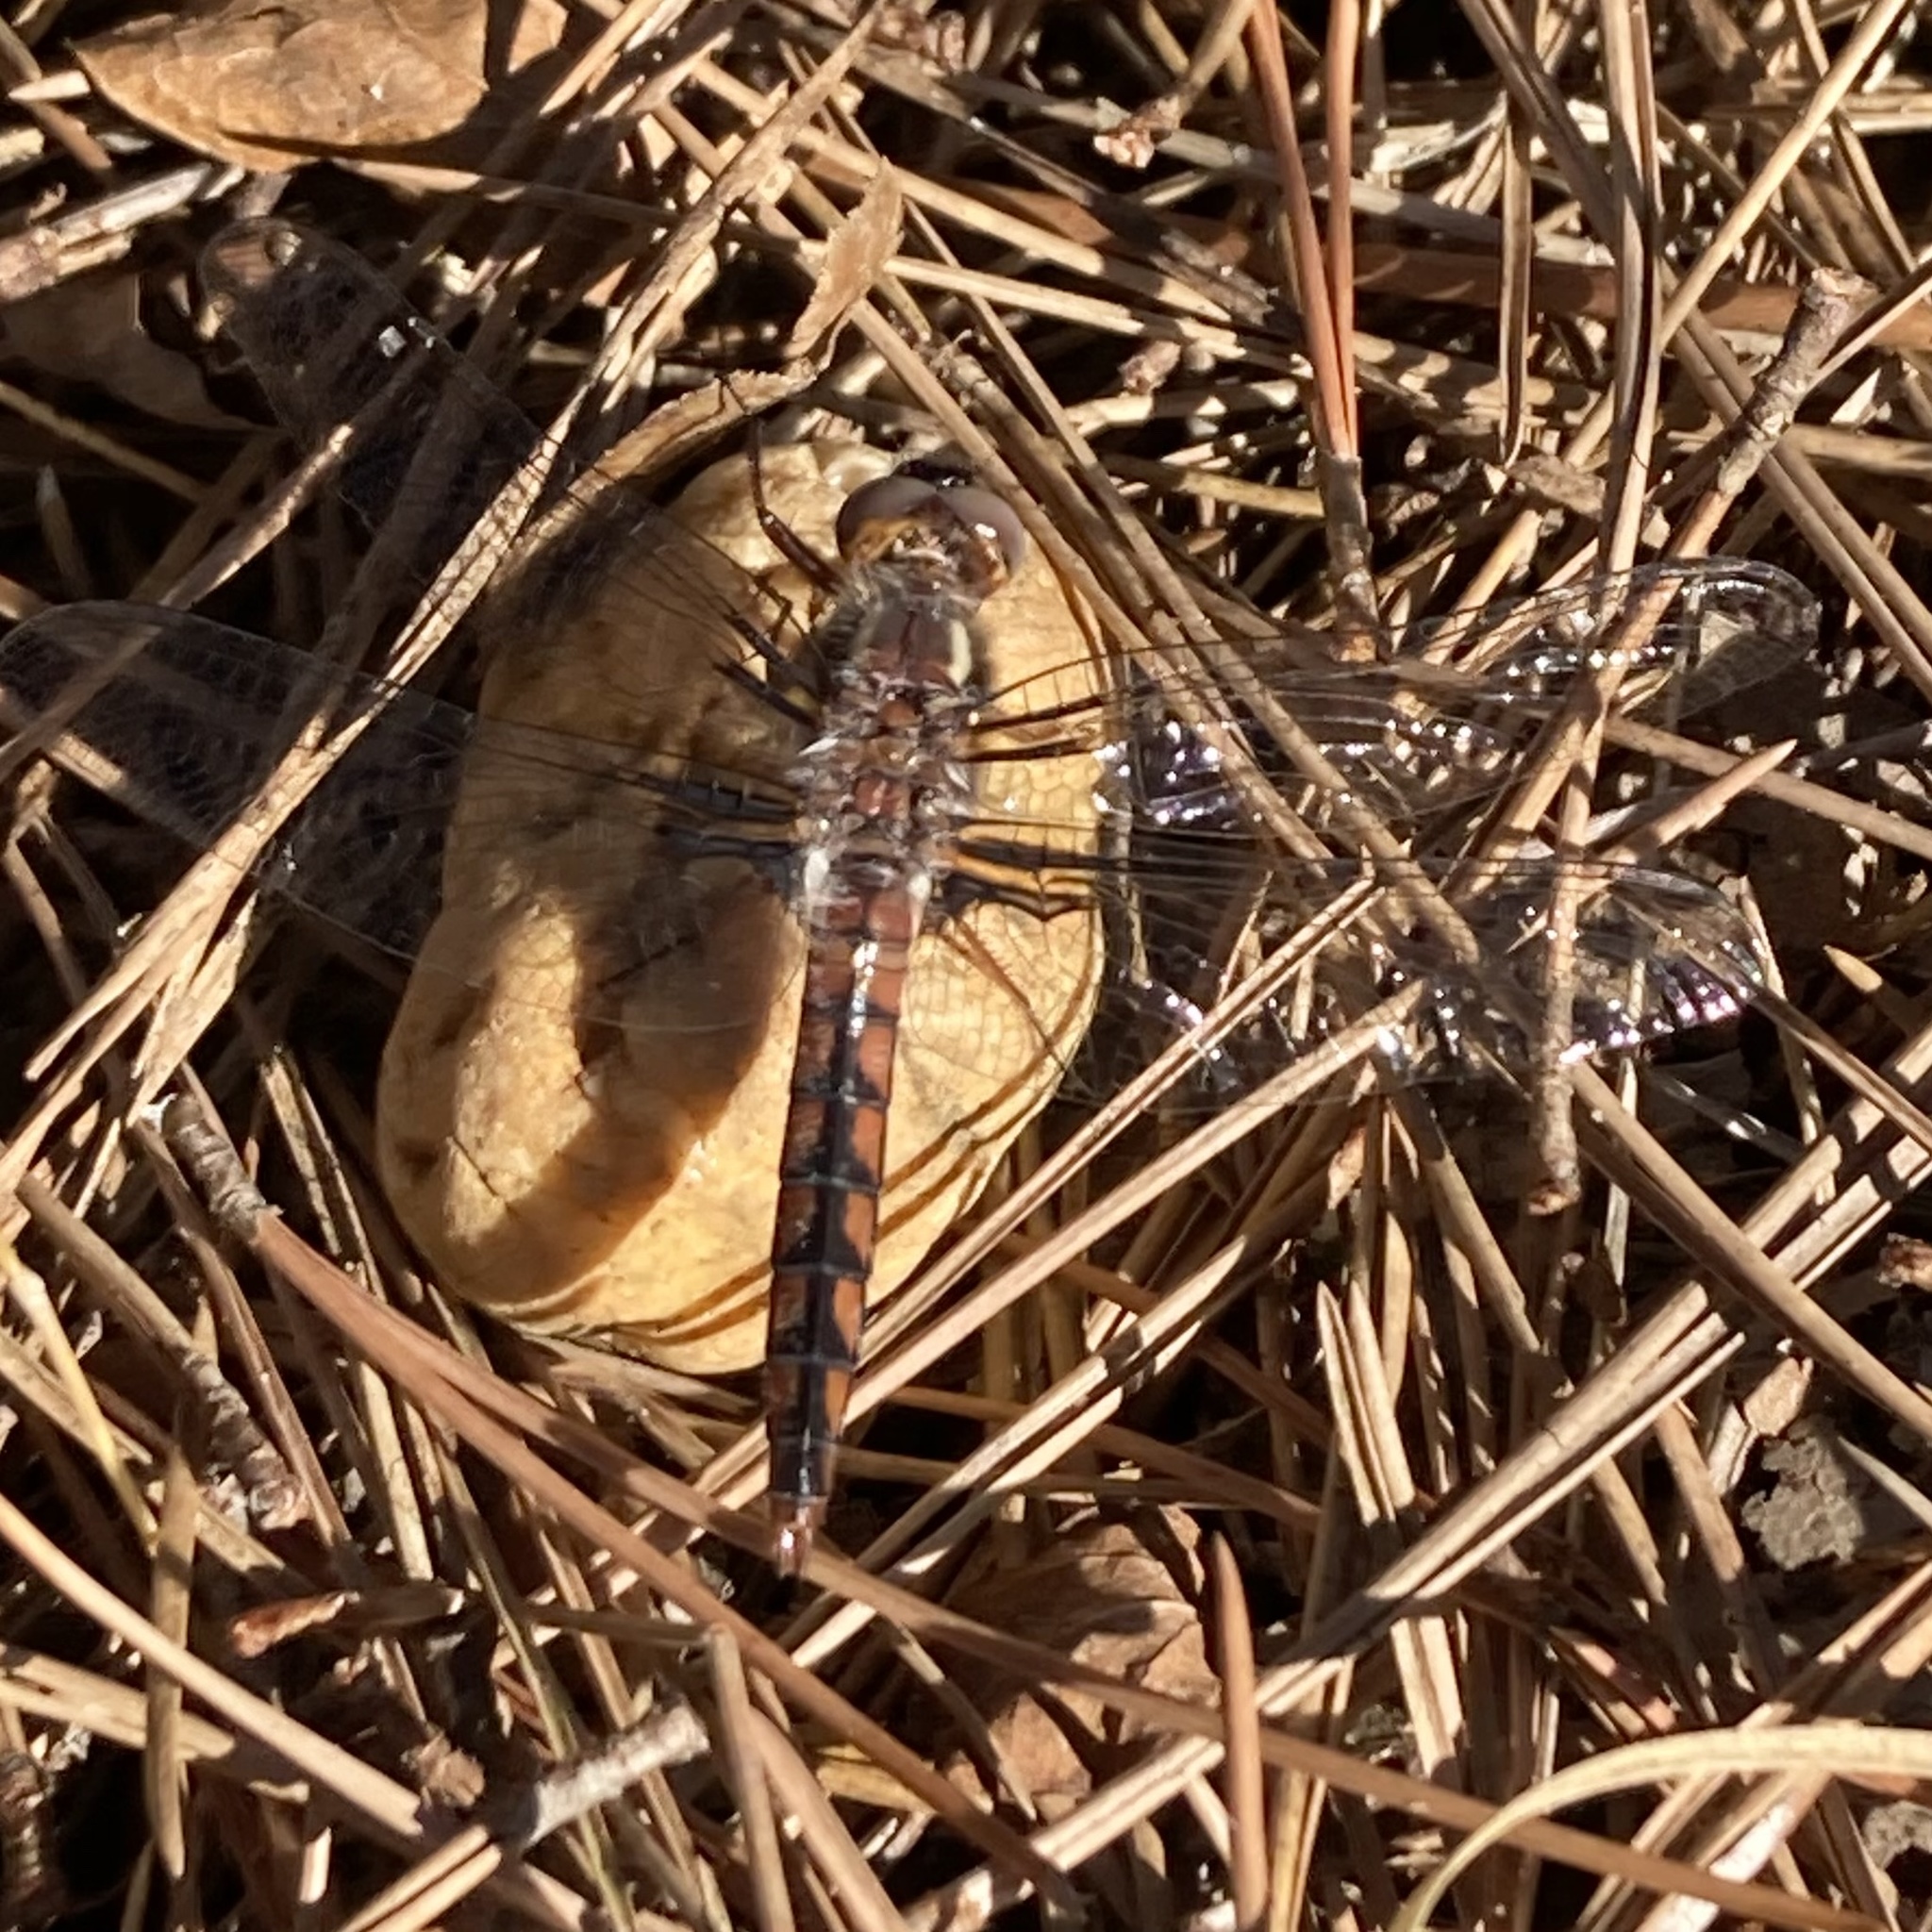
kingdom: Animalia
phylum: Arthropoda
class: Insecta
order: Odonata
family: Libellulidae
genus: Ladona
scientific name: Ladona deplanata
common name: Blue corporal
